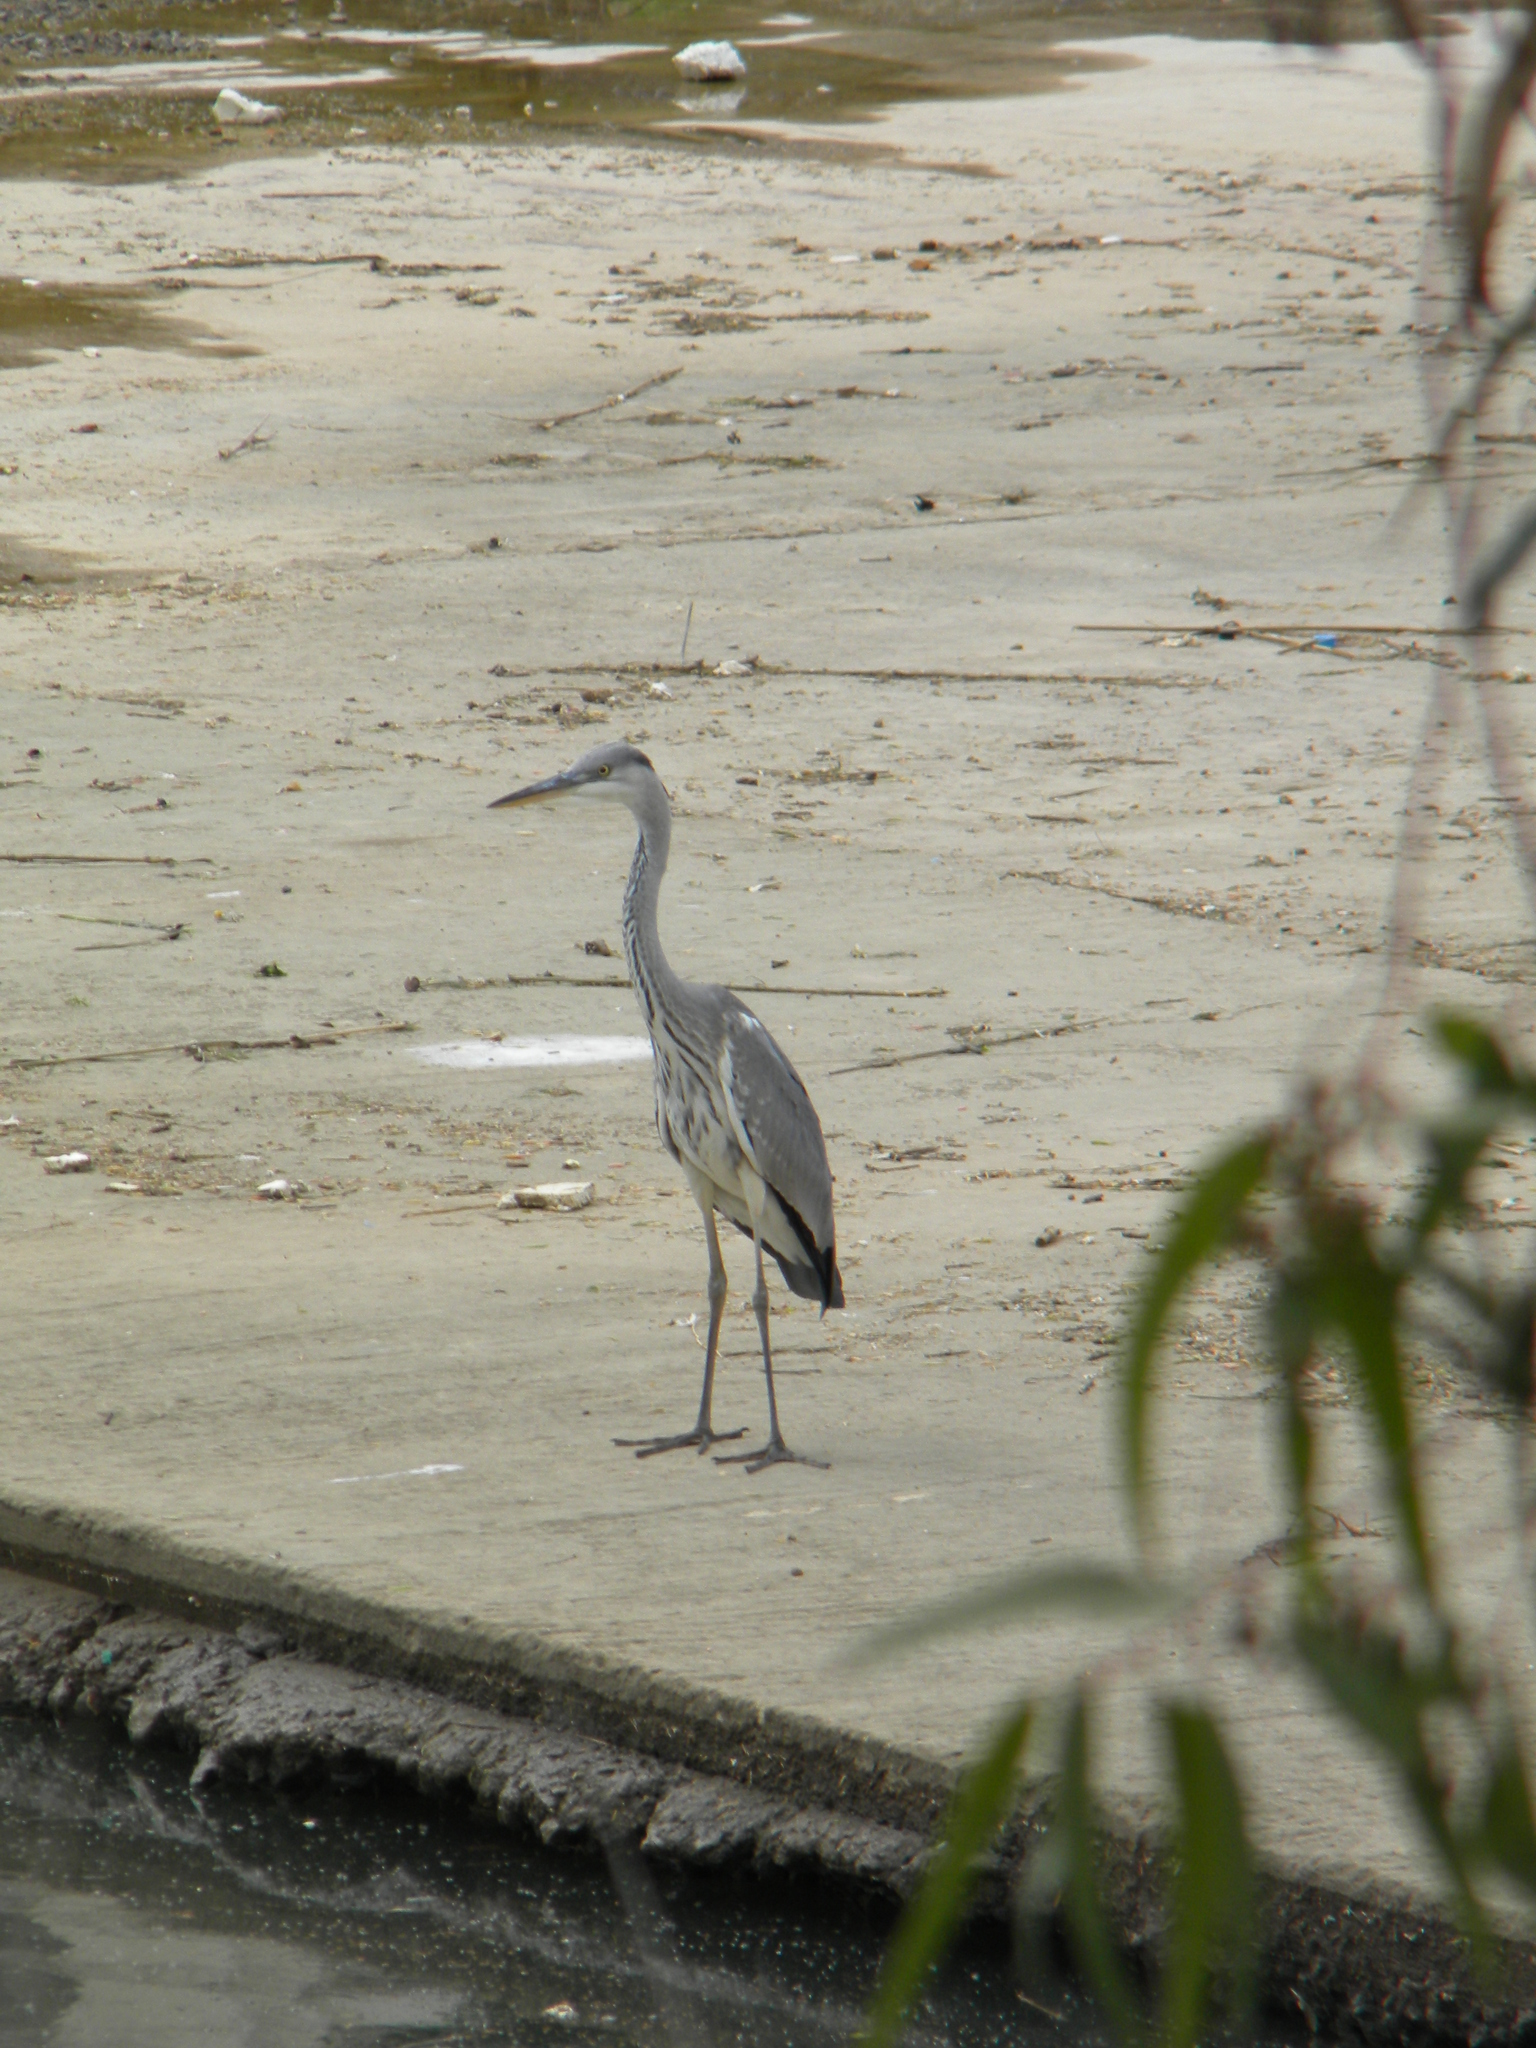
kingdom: Animalia
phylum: Chordata
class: Aves
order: Pelecaniformes
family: Ardeidae
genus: Ardea
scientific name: Ardea cinerea
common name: Grey heron
